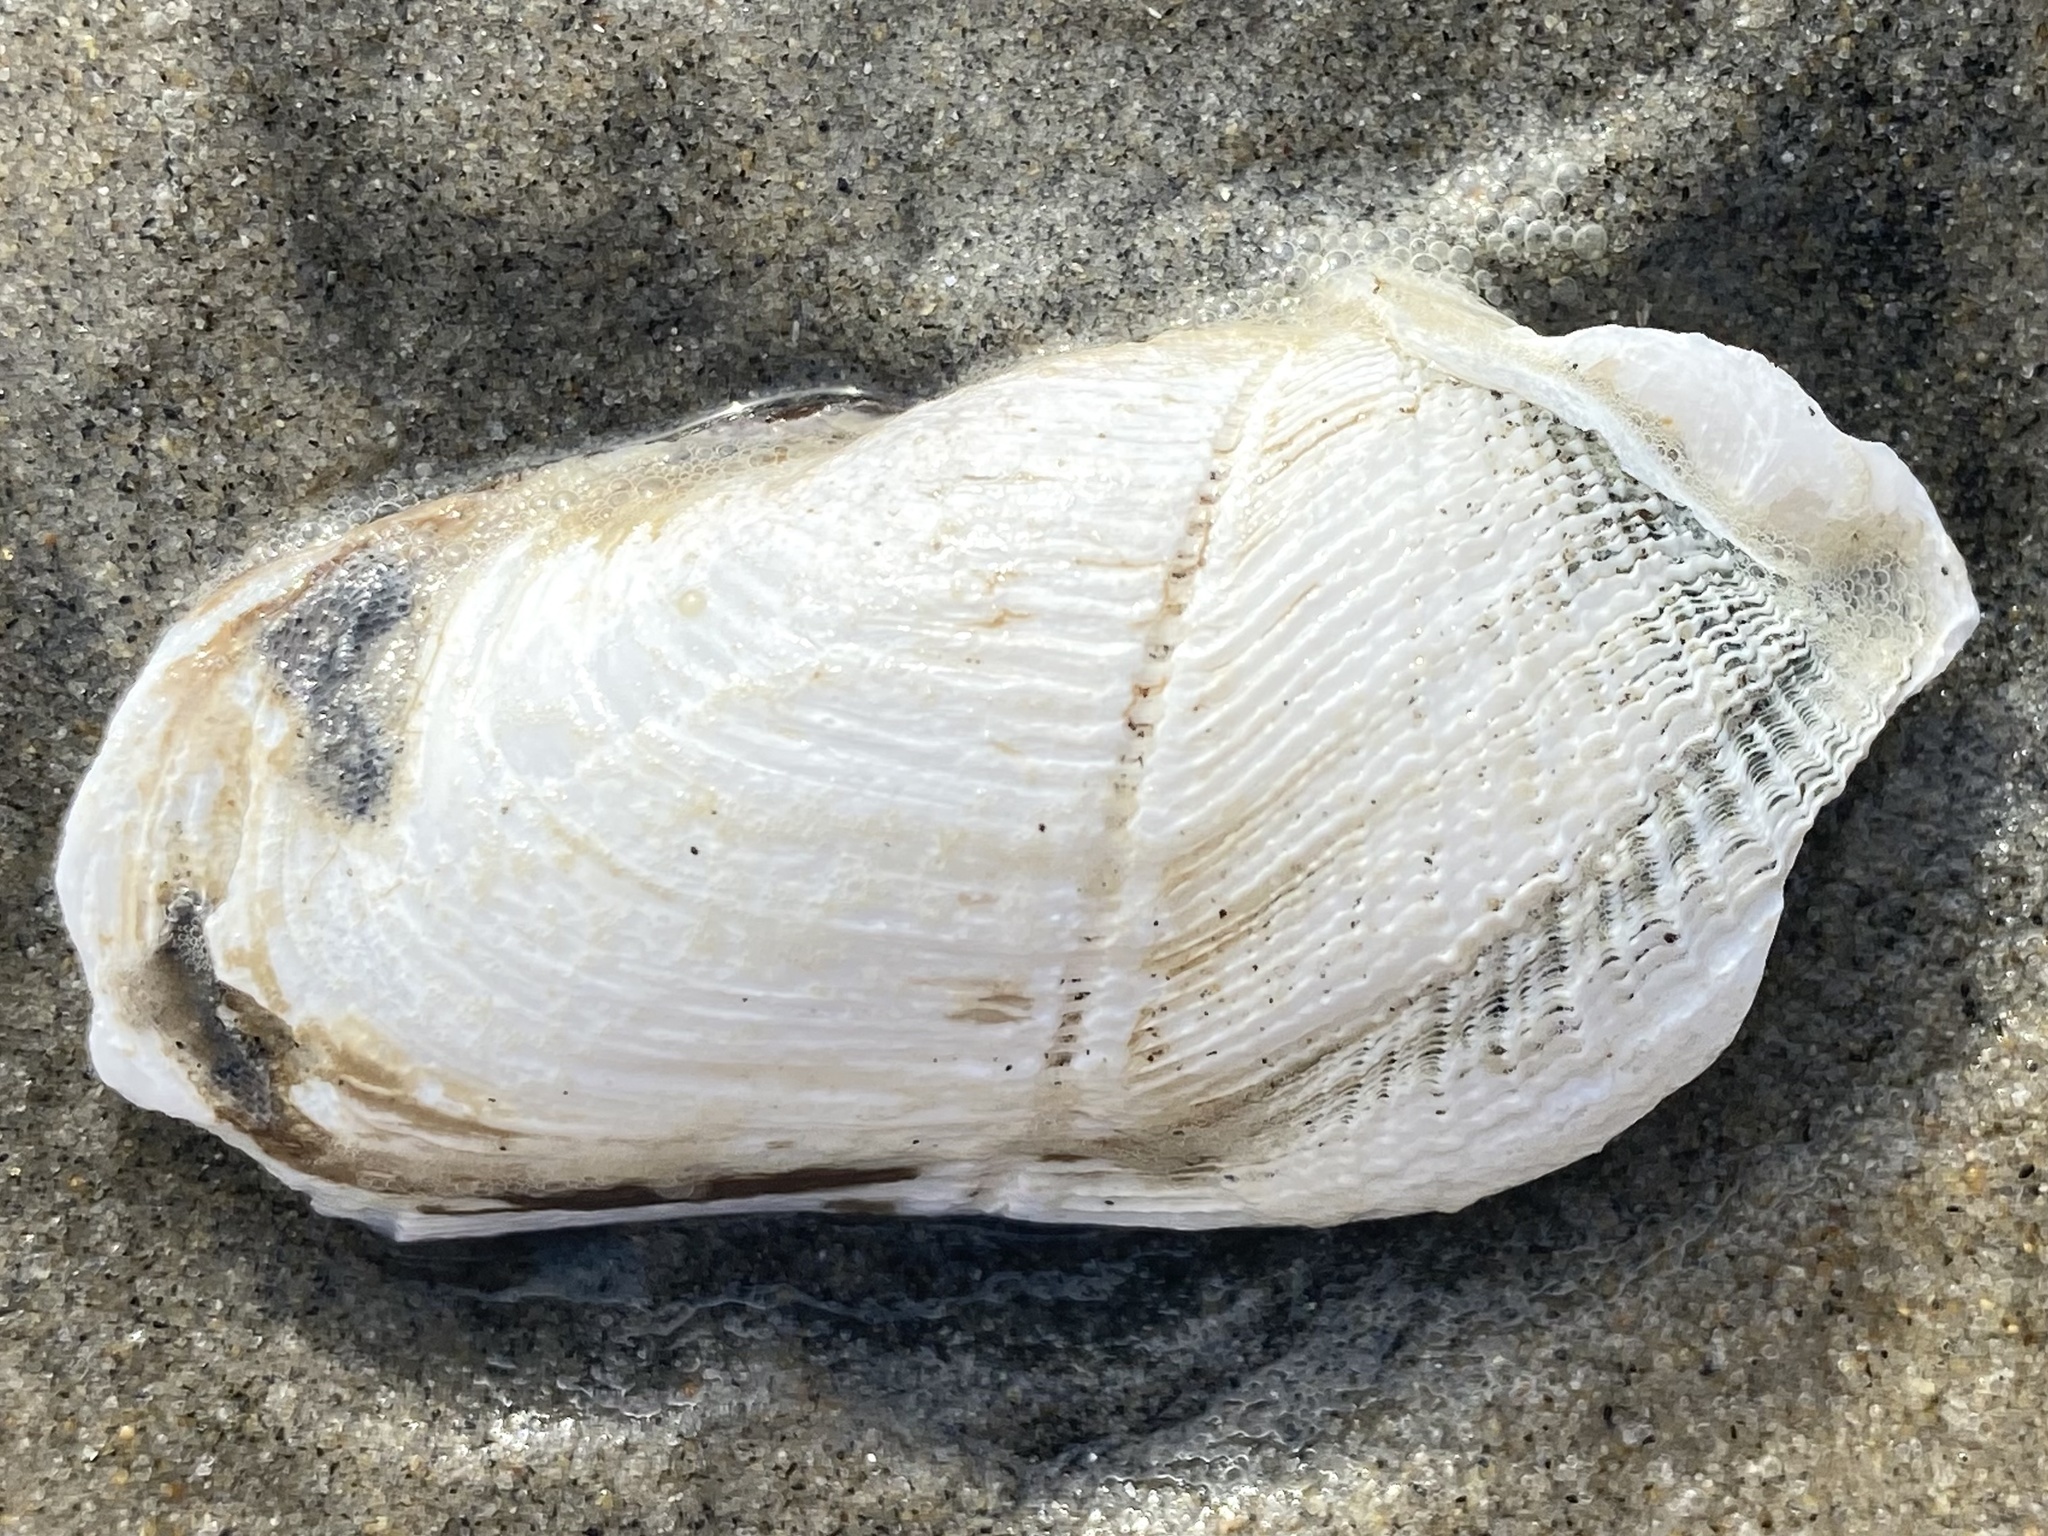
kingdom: Animalia
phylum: Mollusca
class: Bivalvia
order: Myida
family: Pholadidae
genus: Zirfaea
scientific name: Zirfaea pilsbryi
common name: Rough piddock
